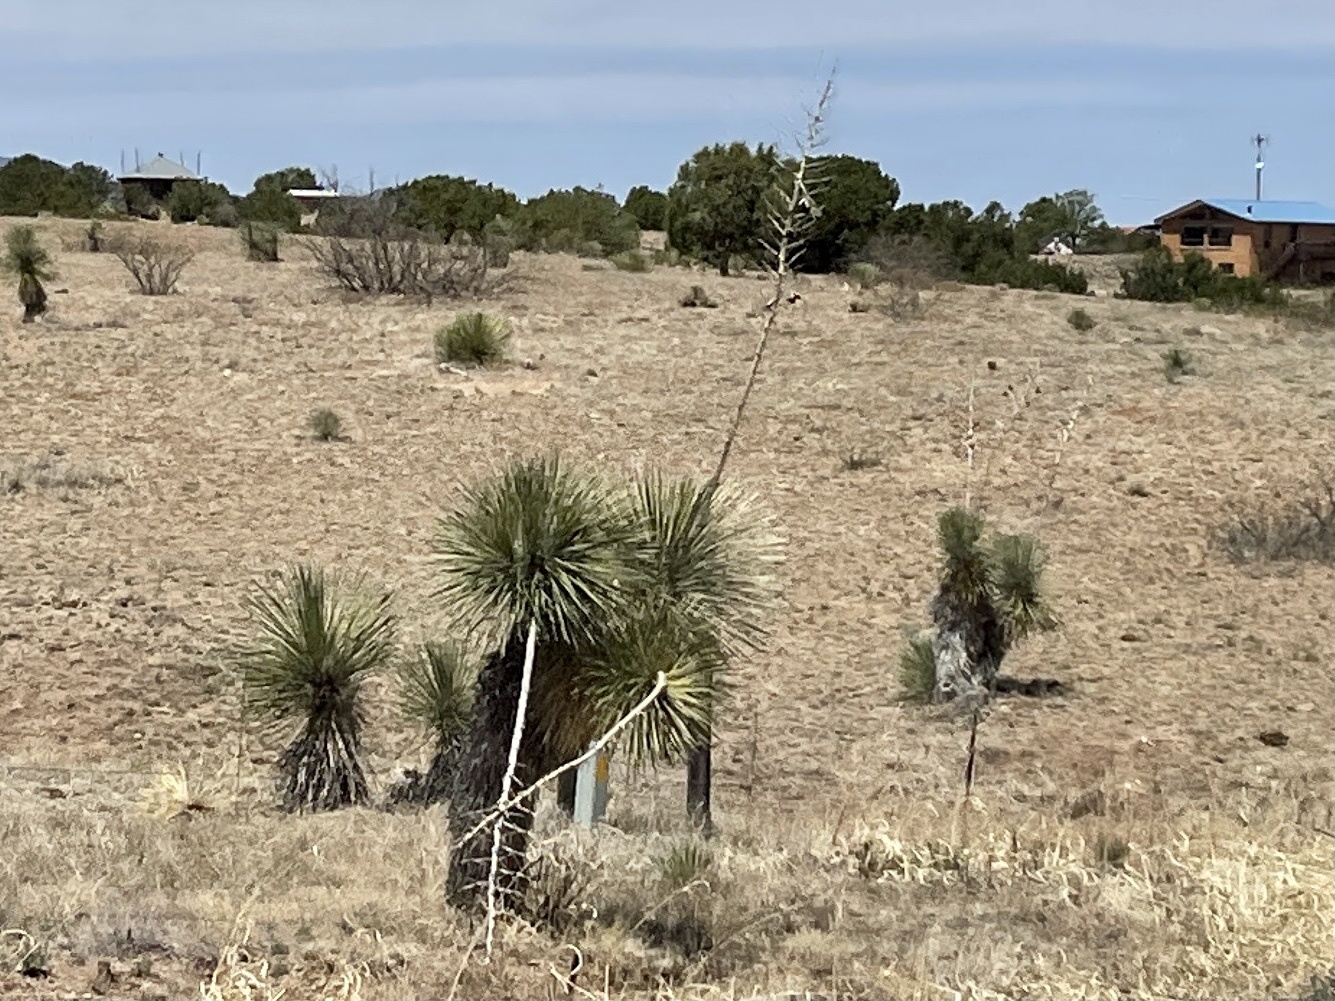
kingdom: Plantae
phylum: Tracheophyta
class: Liliopsida
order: Asparagales
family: Asparagaceae
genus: Yucca
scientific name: Yucca elata
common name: Palmella
